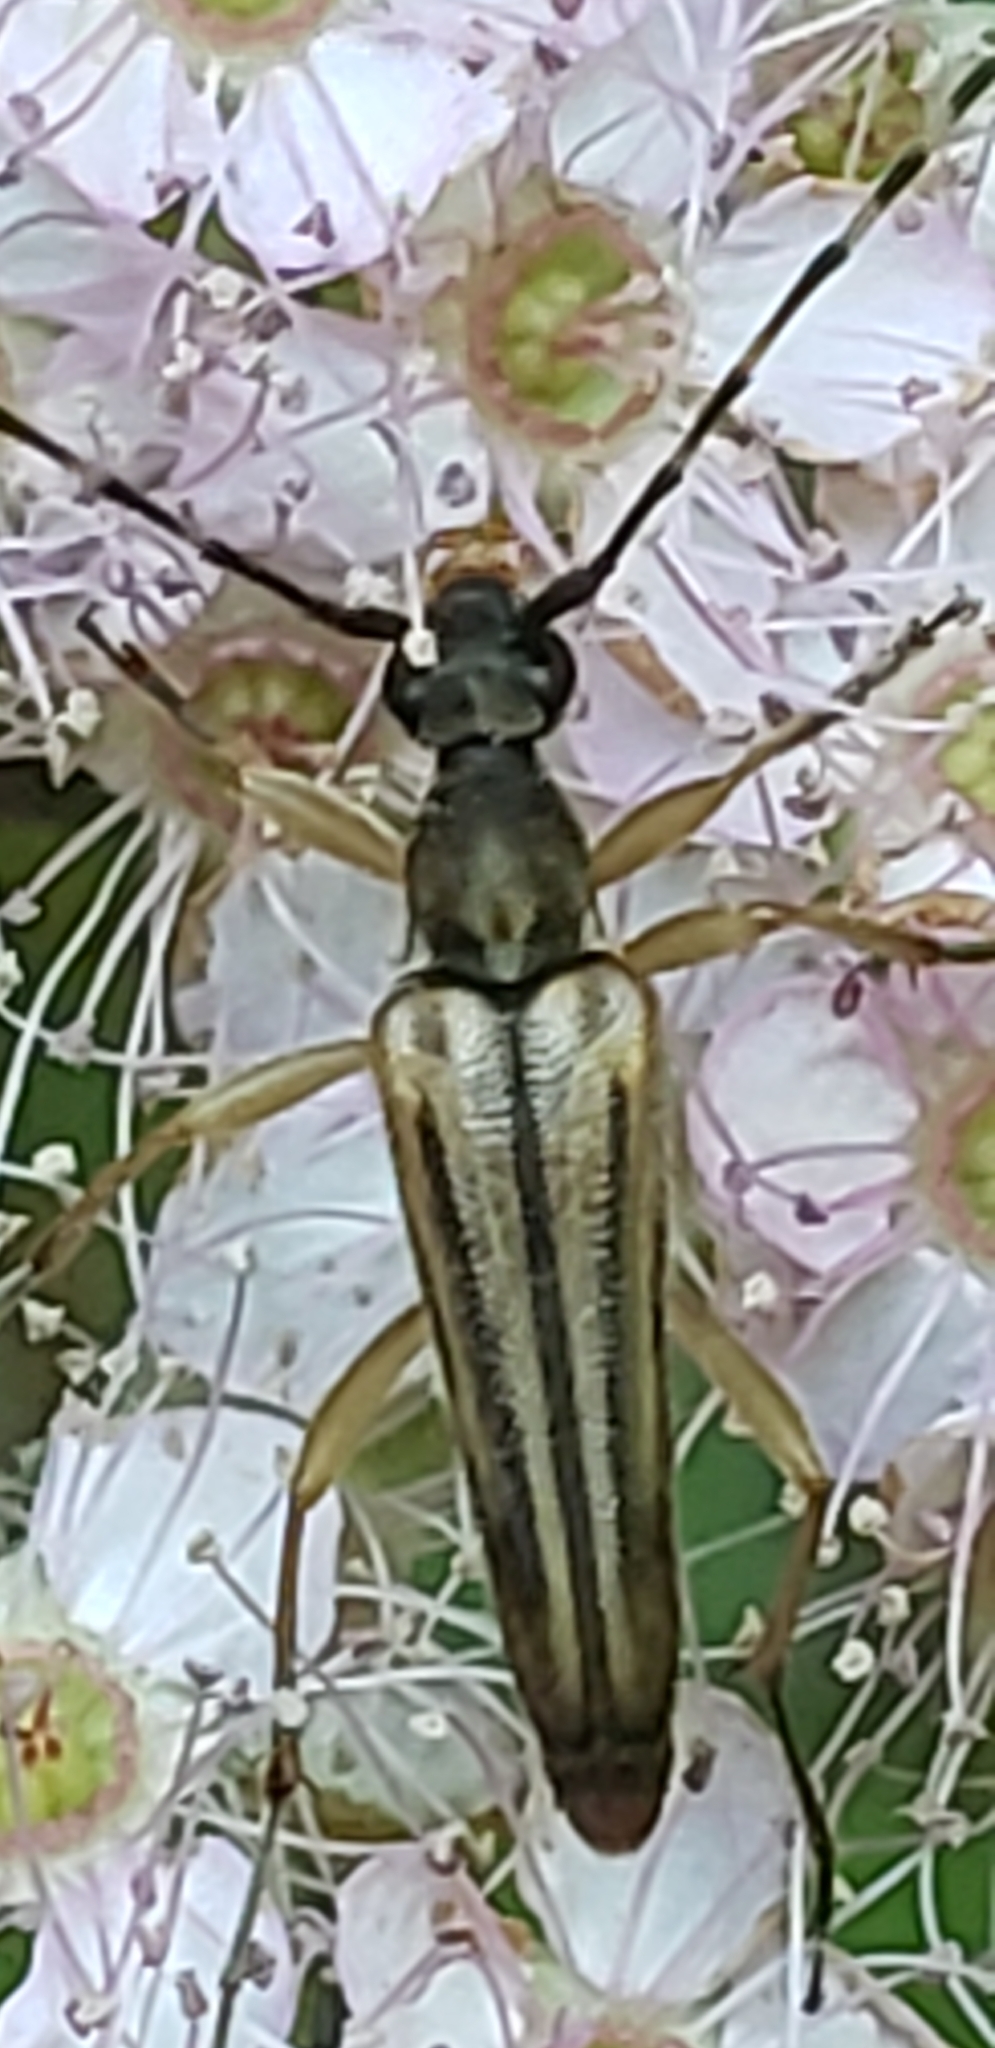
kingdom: Animalia
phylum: Arthropoda
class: Insecta
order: Coleoptera
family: Cerambycidae
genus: Analeptura
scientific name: Analeptura lineola
